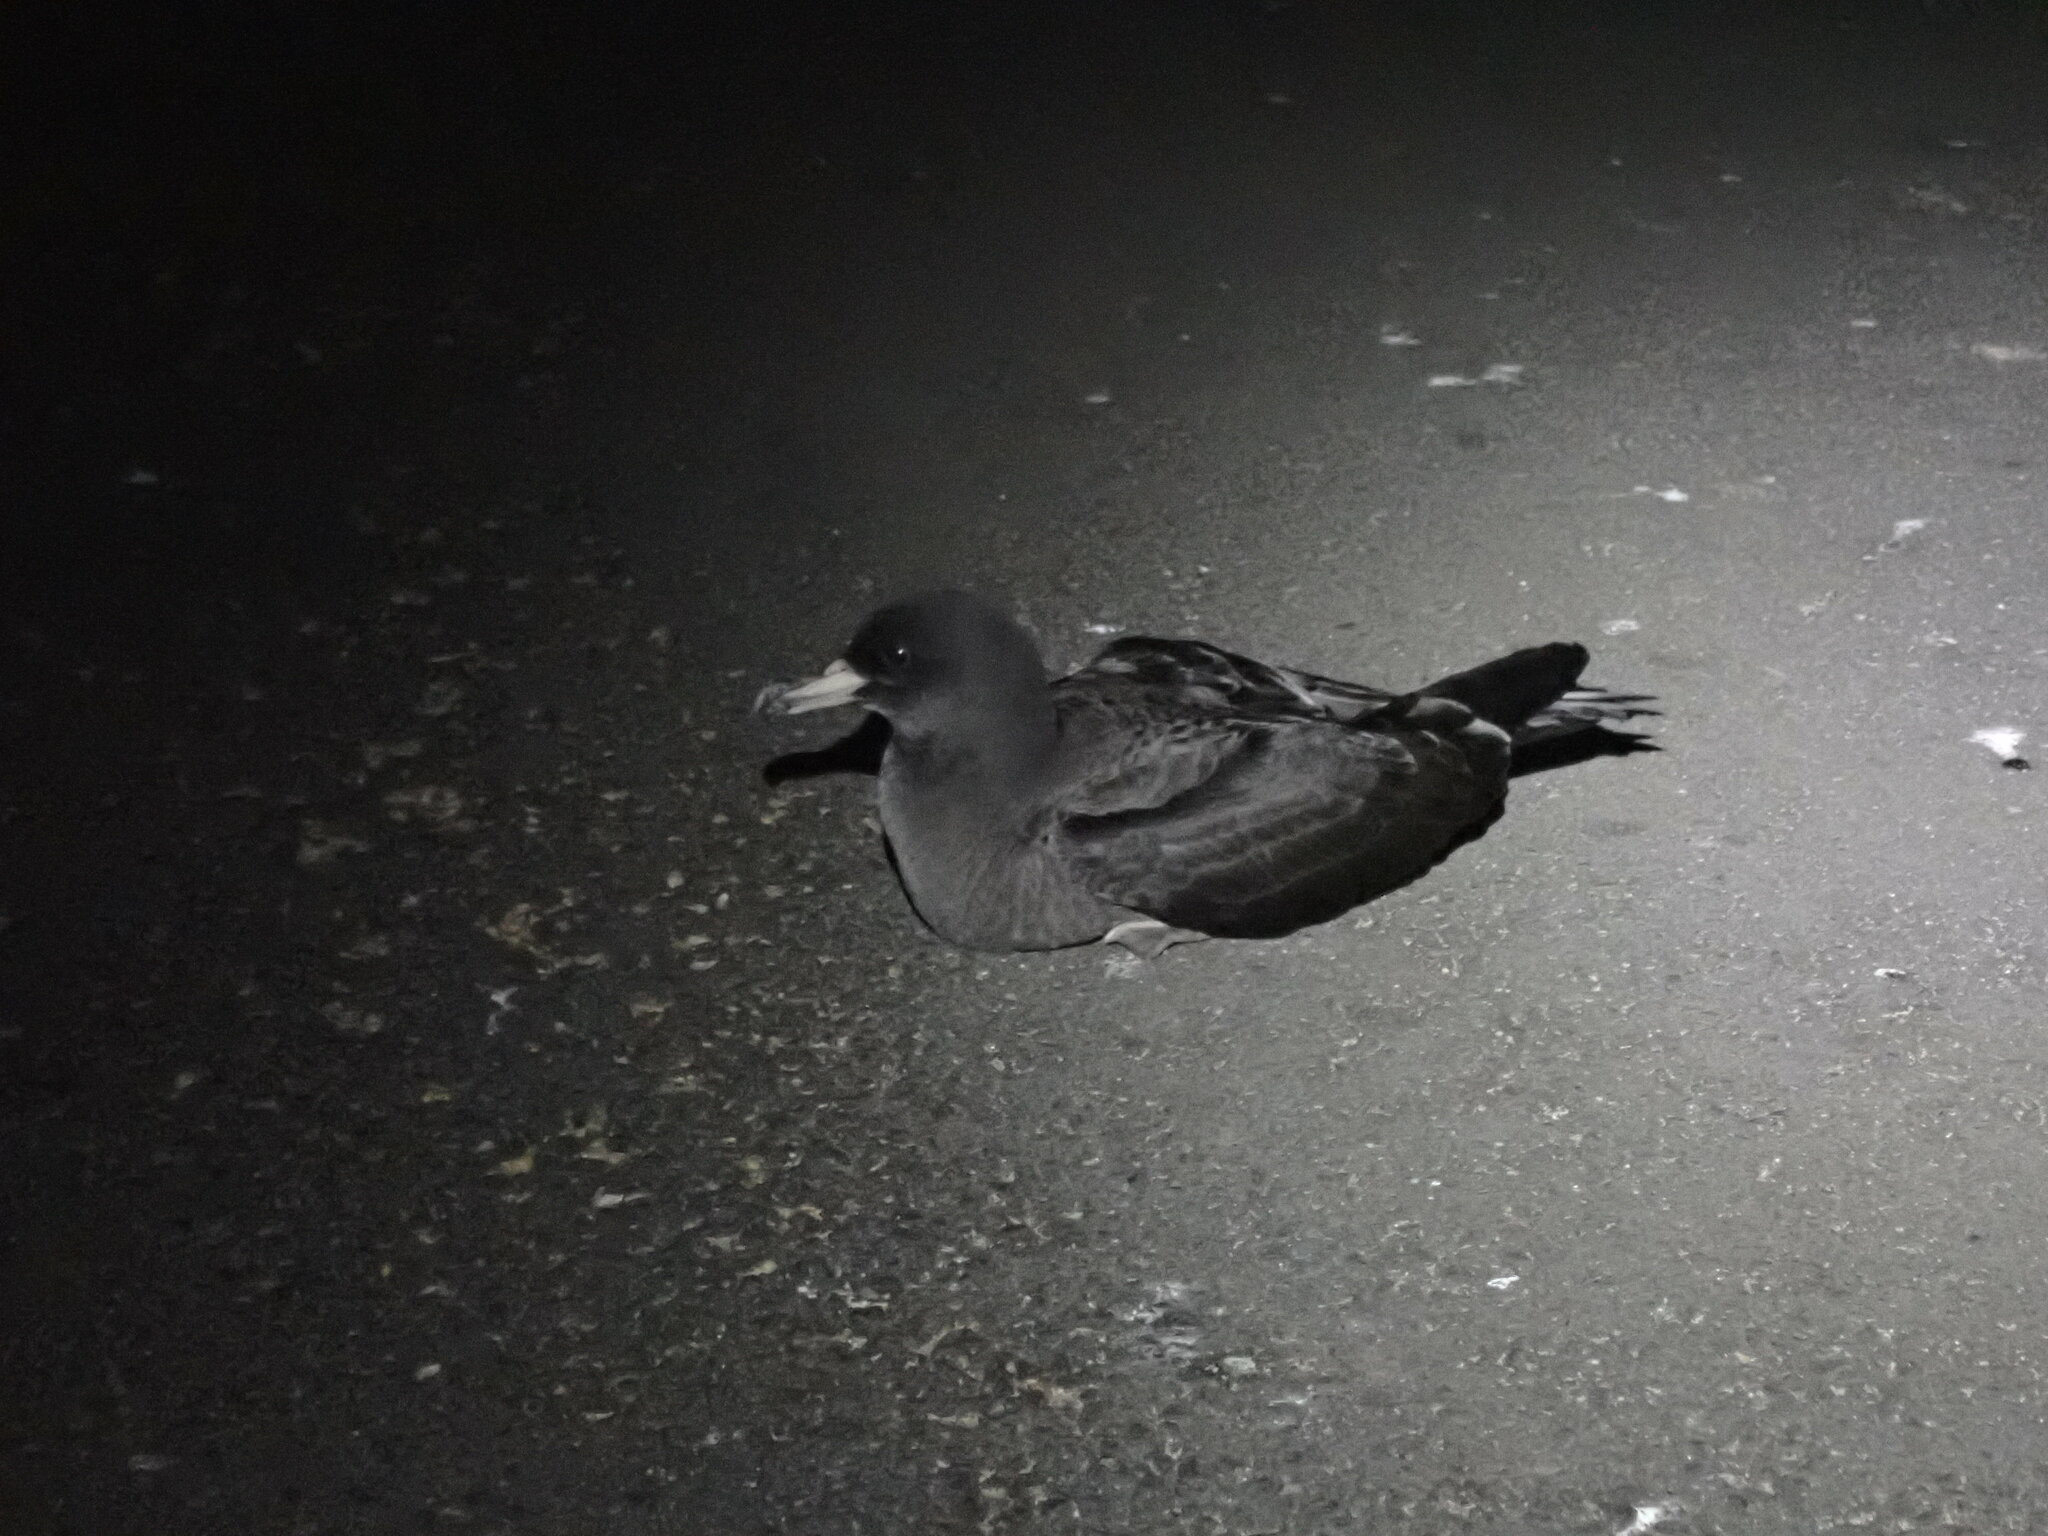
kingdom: Animalia
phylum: Chordata
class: Aves
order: Procellariiformes
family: Procellariidae
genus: Puffinus
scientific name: Puffinus carneipes
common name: Flesh-footed shearwater
